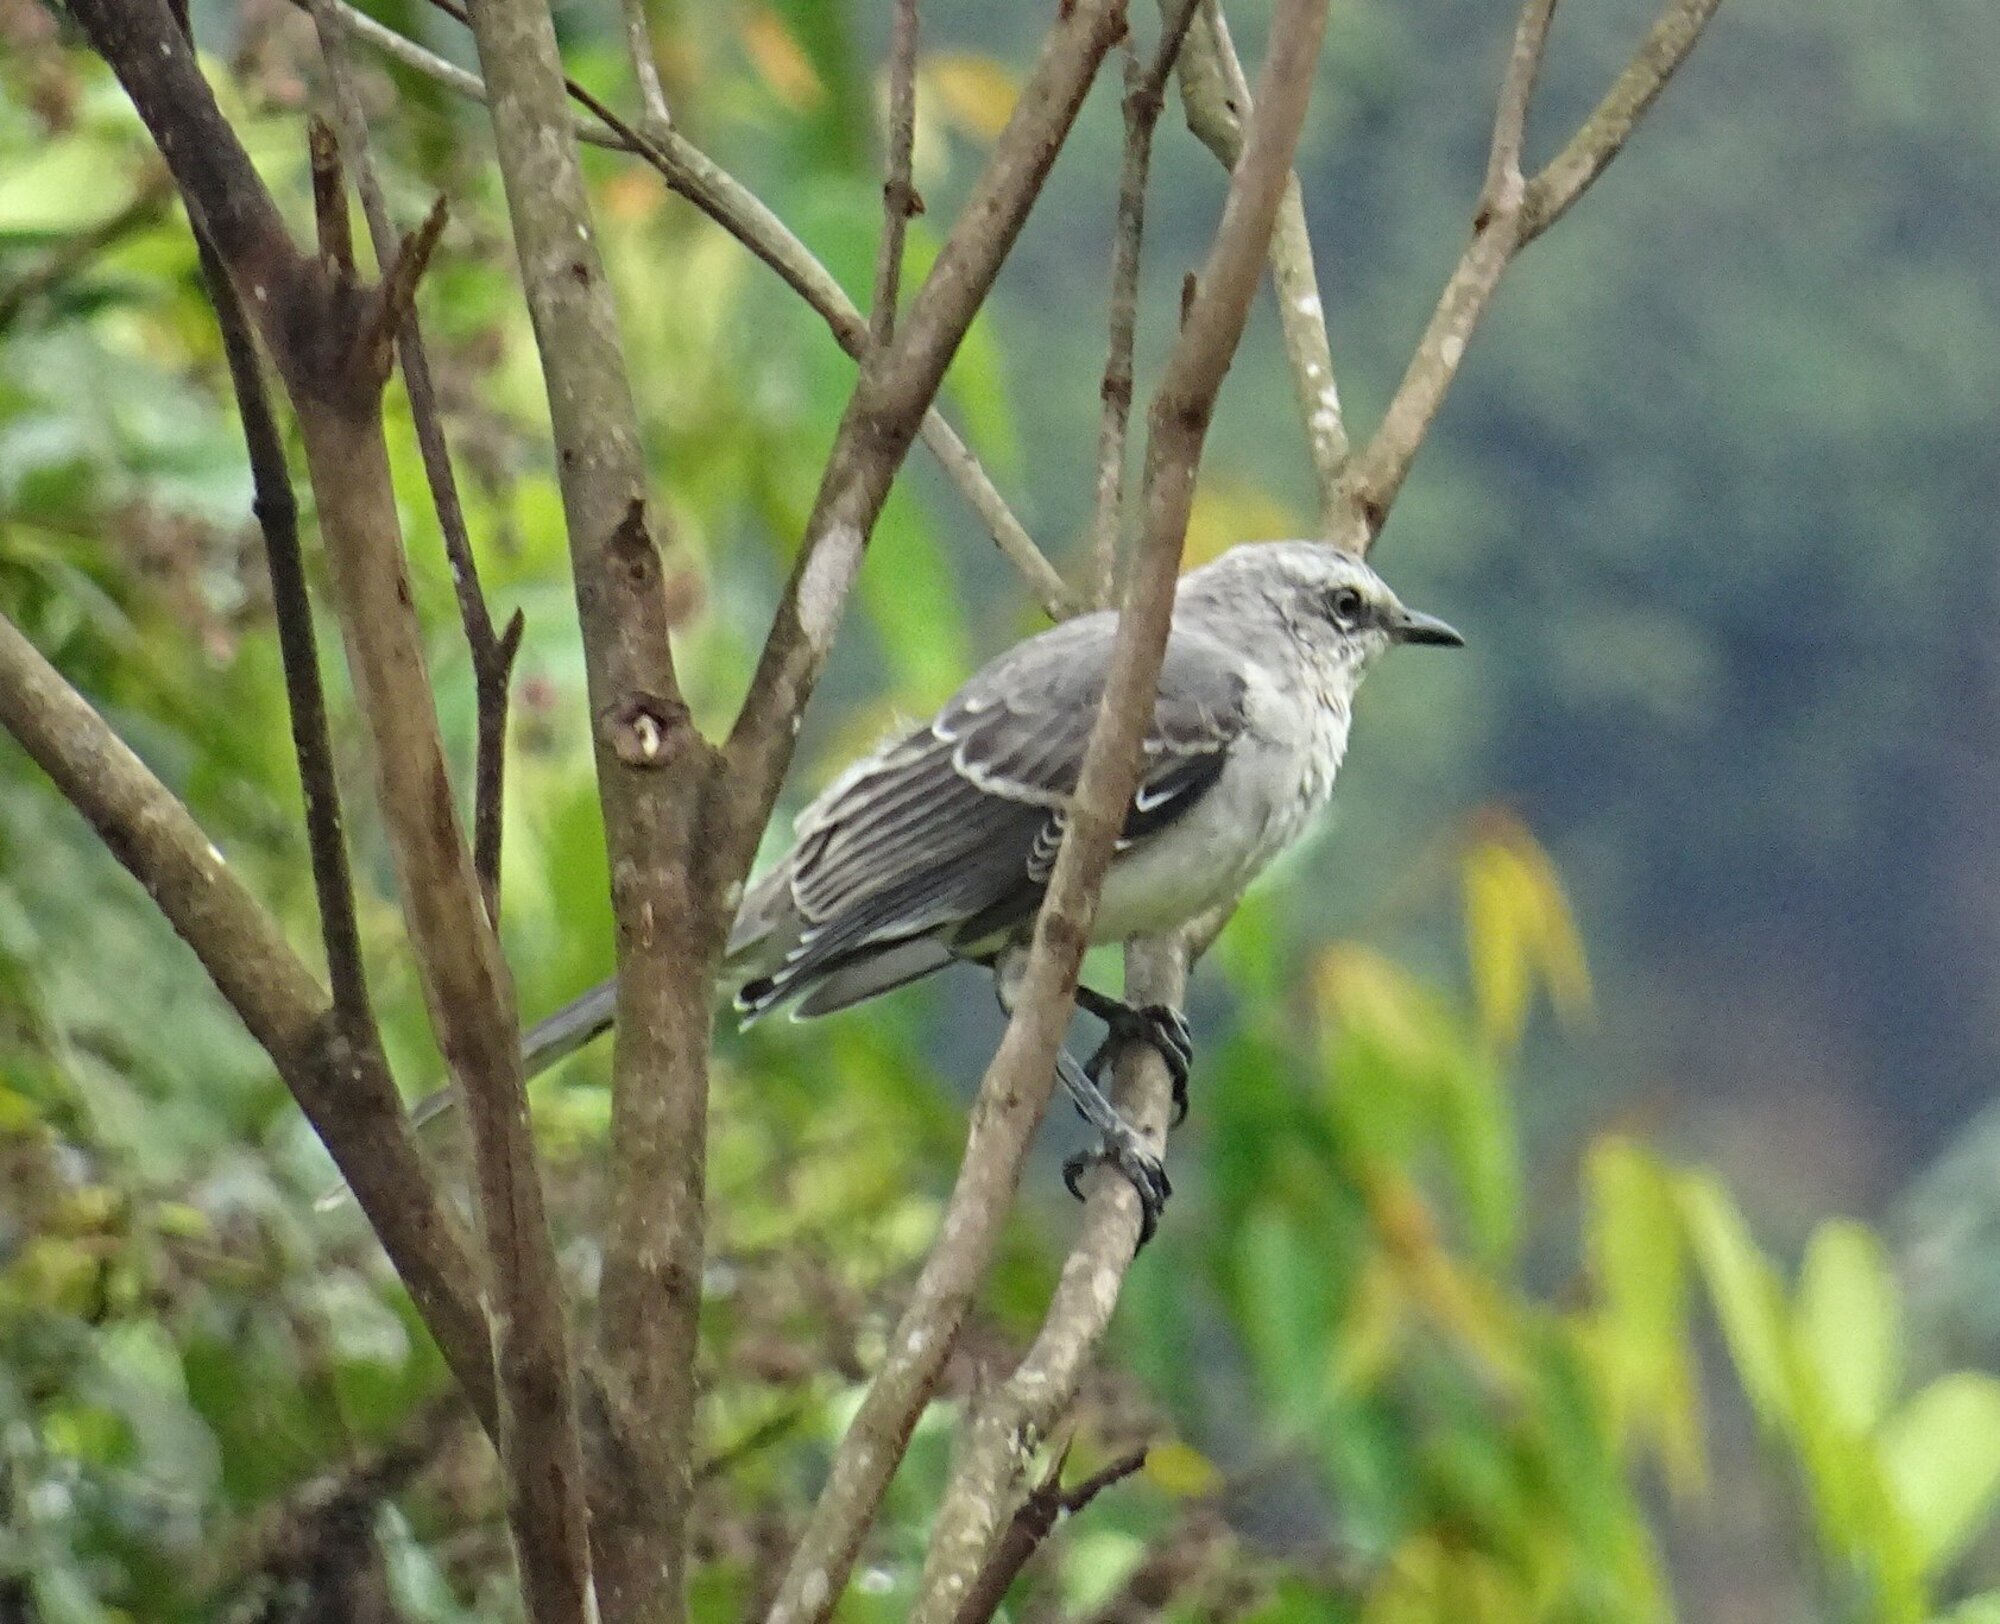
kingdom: Animalia
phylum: Chordata
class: Aves
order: Passeriformes
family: Mimidae
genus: Mimus
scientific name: Mimus gilvus
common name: Tropical mockingbird
